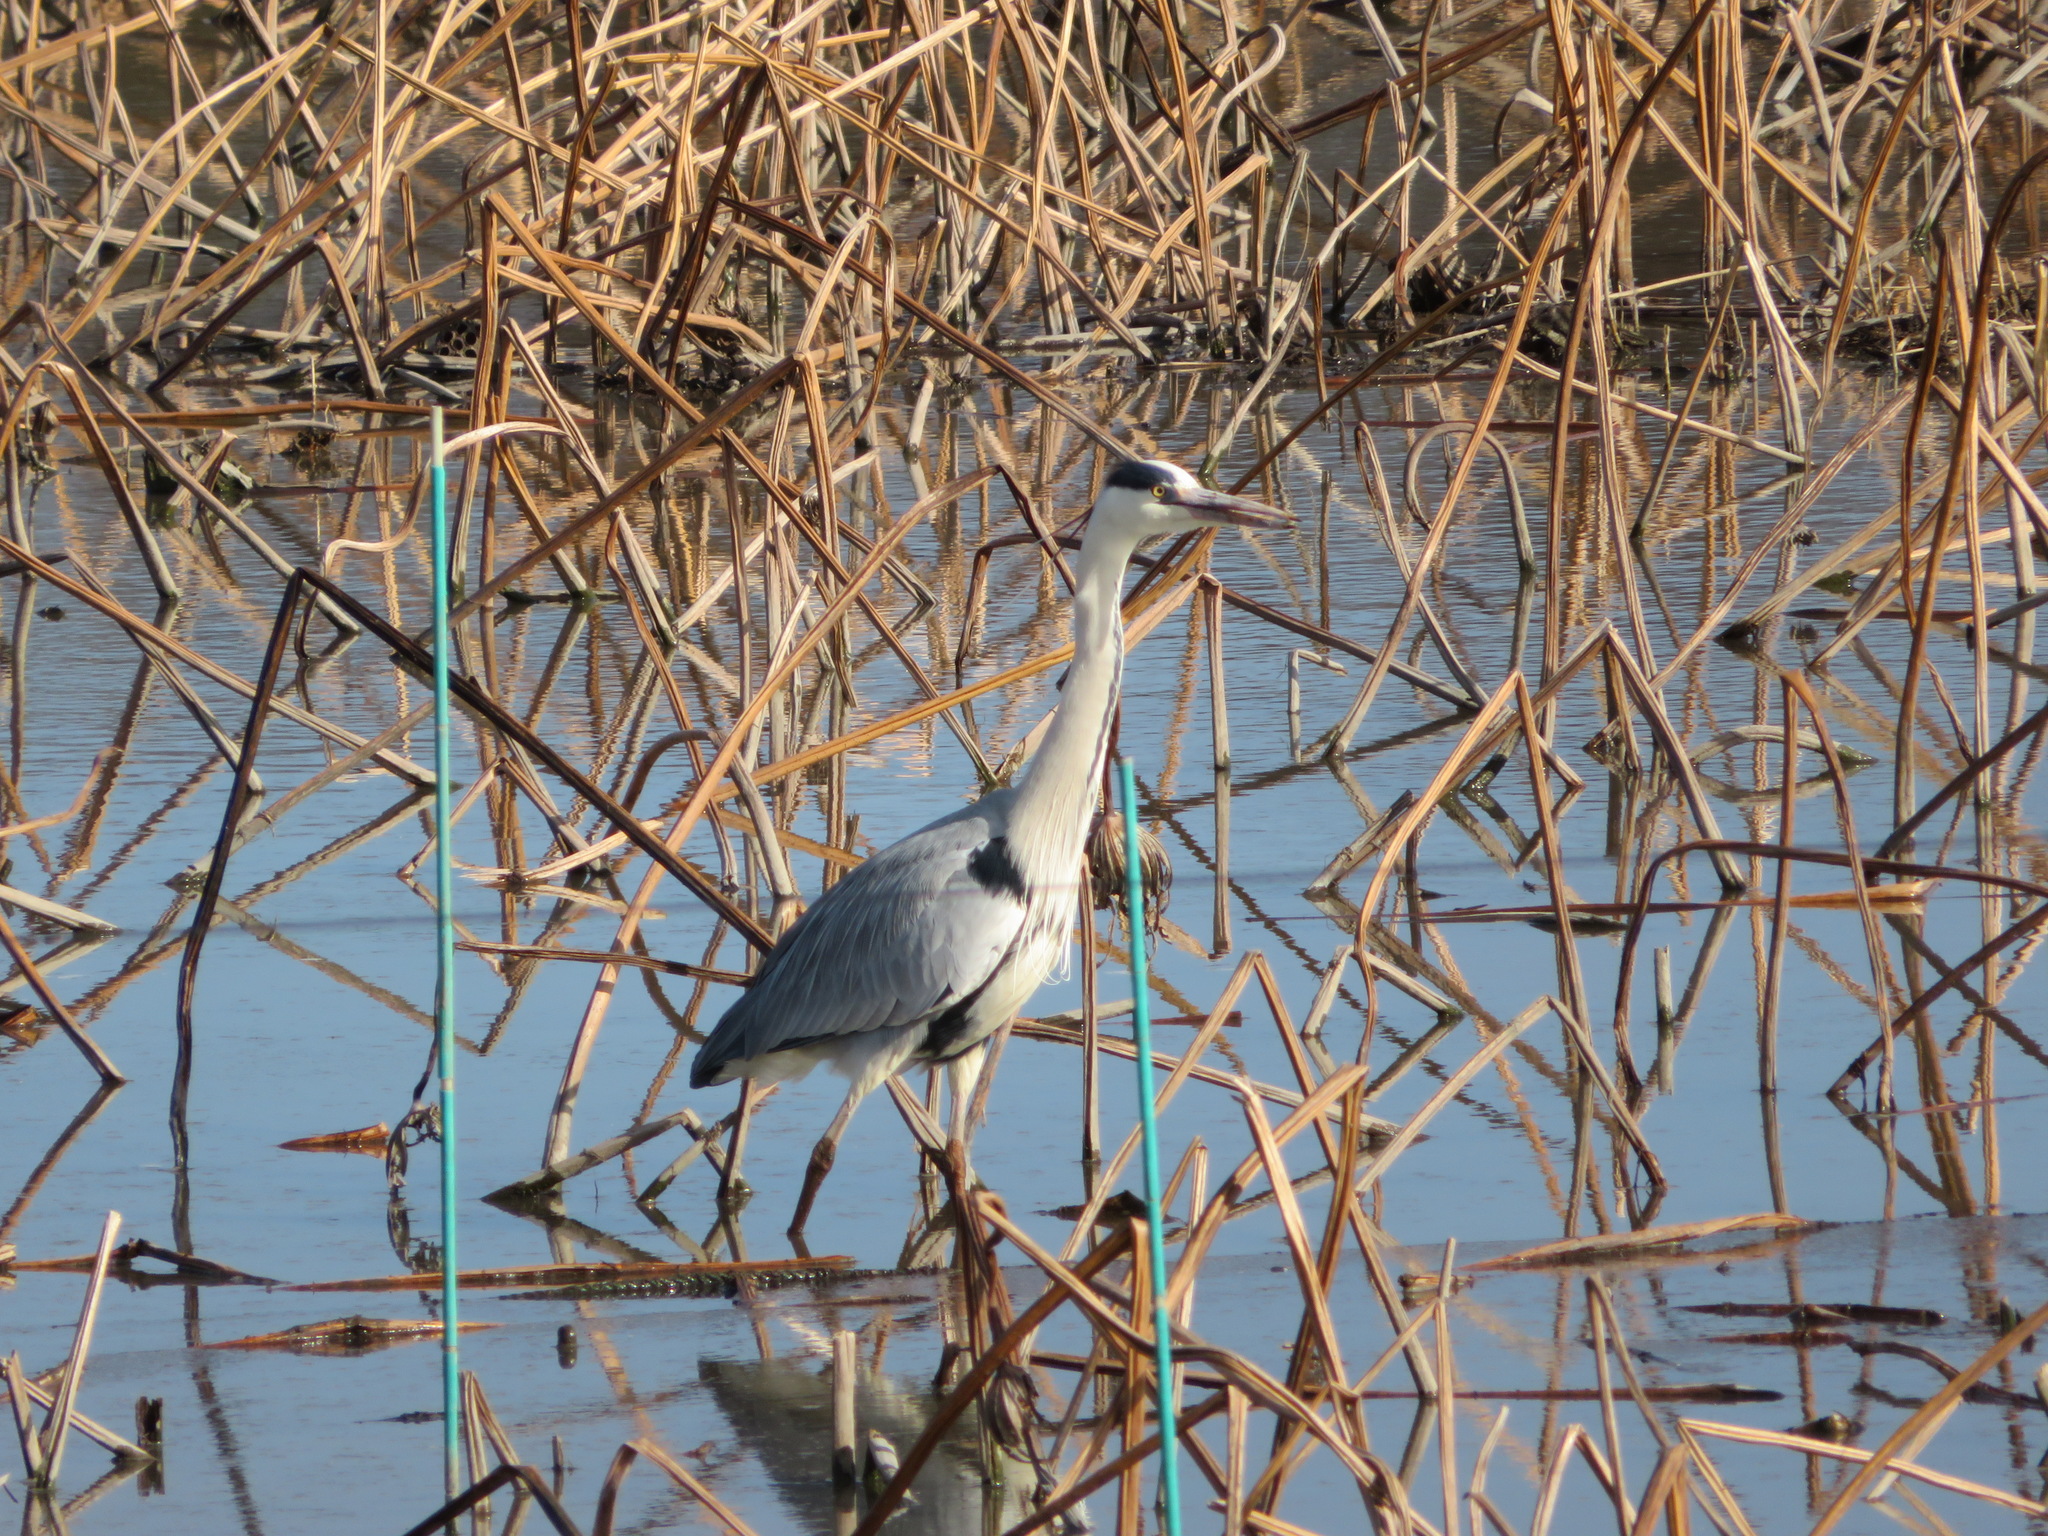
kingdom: Animalia
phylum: Chordata
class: Aves
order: Pelecaniformes
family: Ardeidae
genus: Ardea
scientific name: Ardea cinerea
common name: Grey heron
